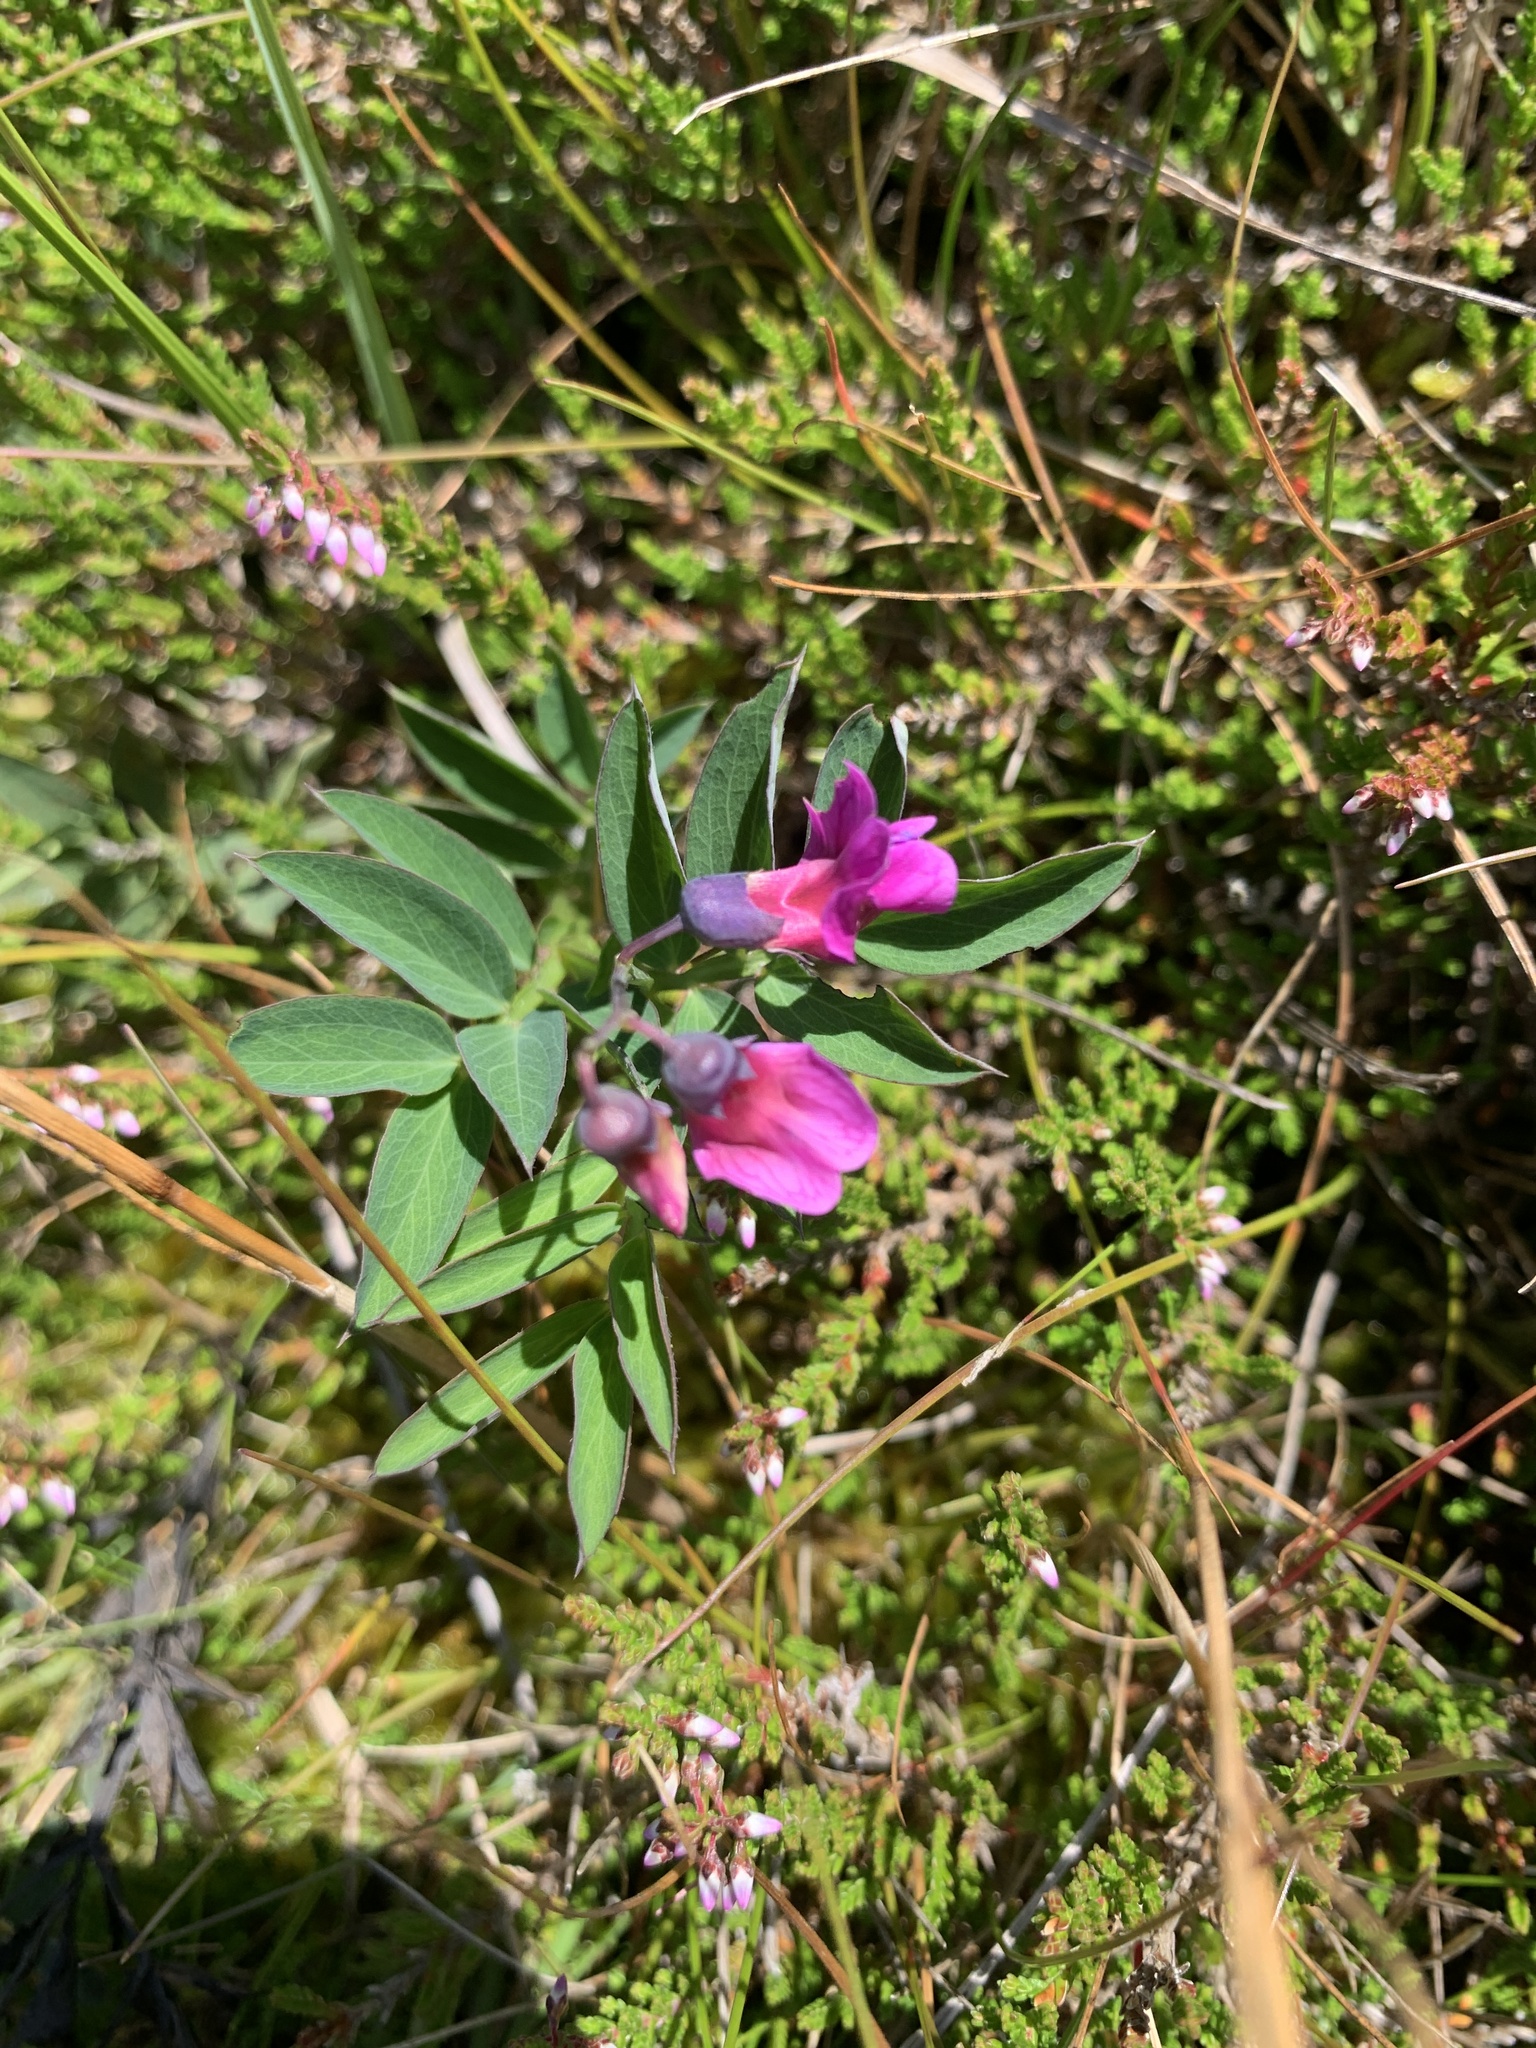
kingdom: Plantae
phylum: Tracheophyta
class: Magnoliopsida
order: Fabales
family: Fabaceae
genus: Lathyrus
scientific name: Lathyrus linifolius
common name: Bitter-vetch
